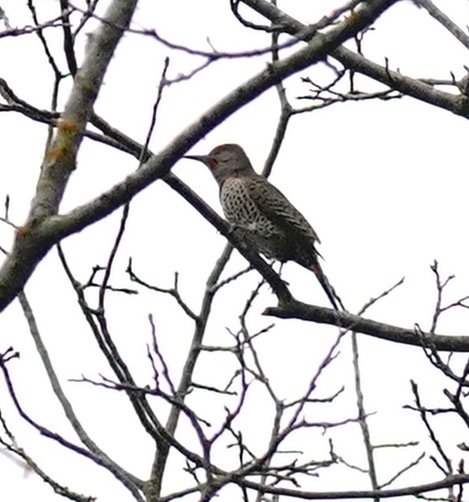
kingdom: Animalia
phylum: Chordata
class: Aves
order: Piciformes
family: Picidae
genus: Colaptes
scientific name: Colaptes auratus
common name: Northern flicker
